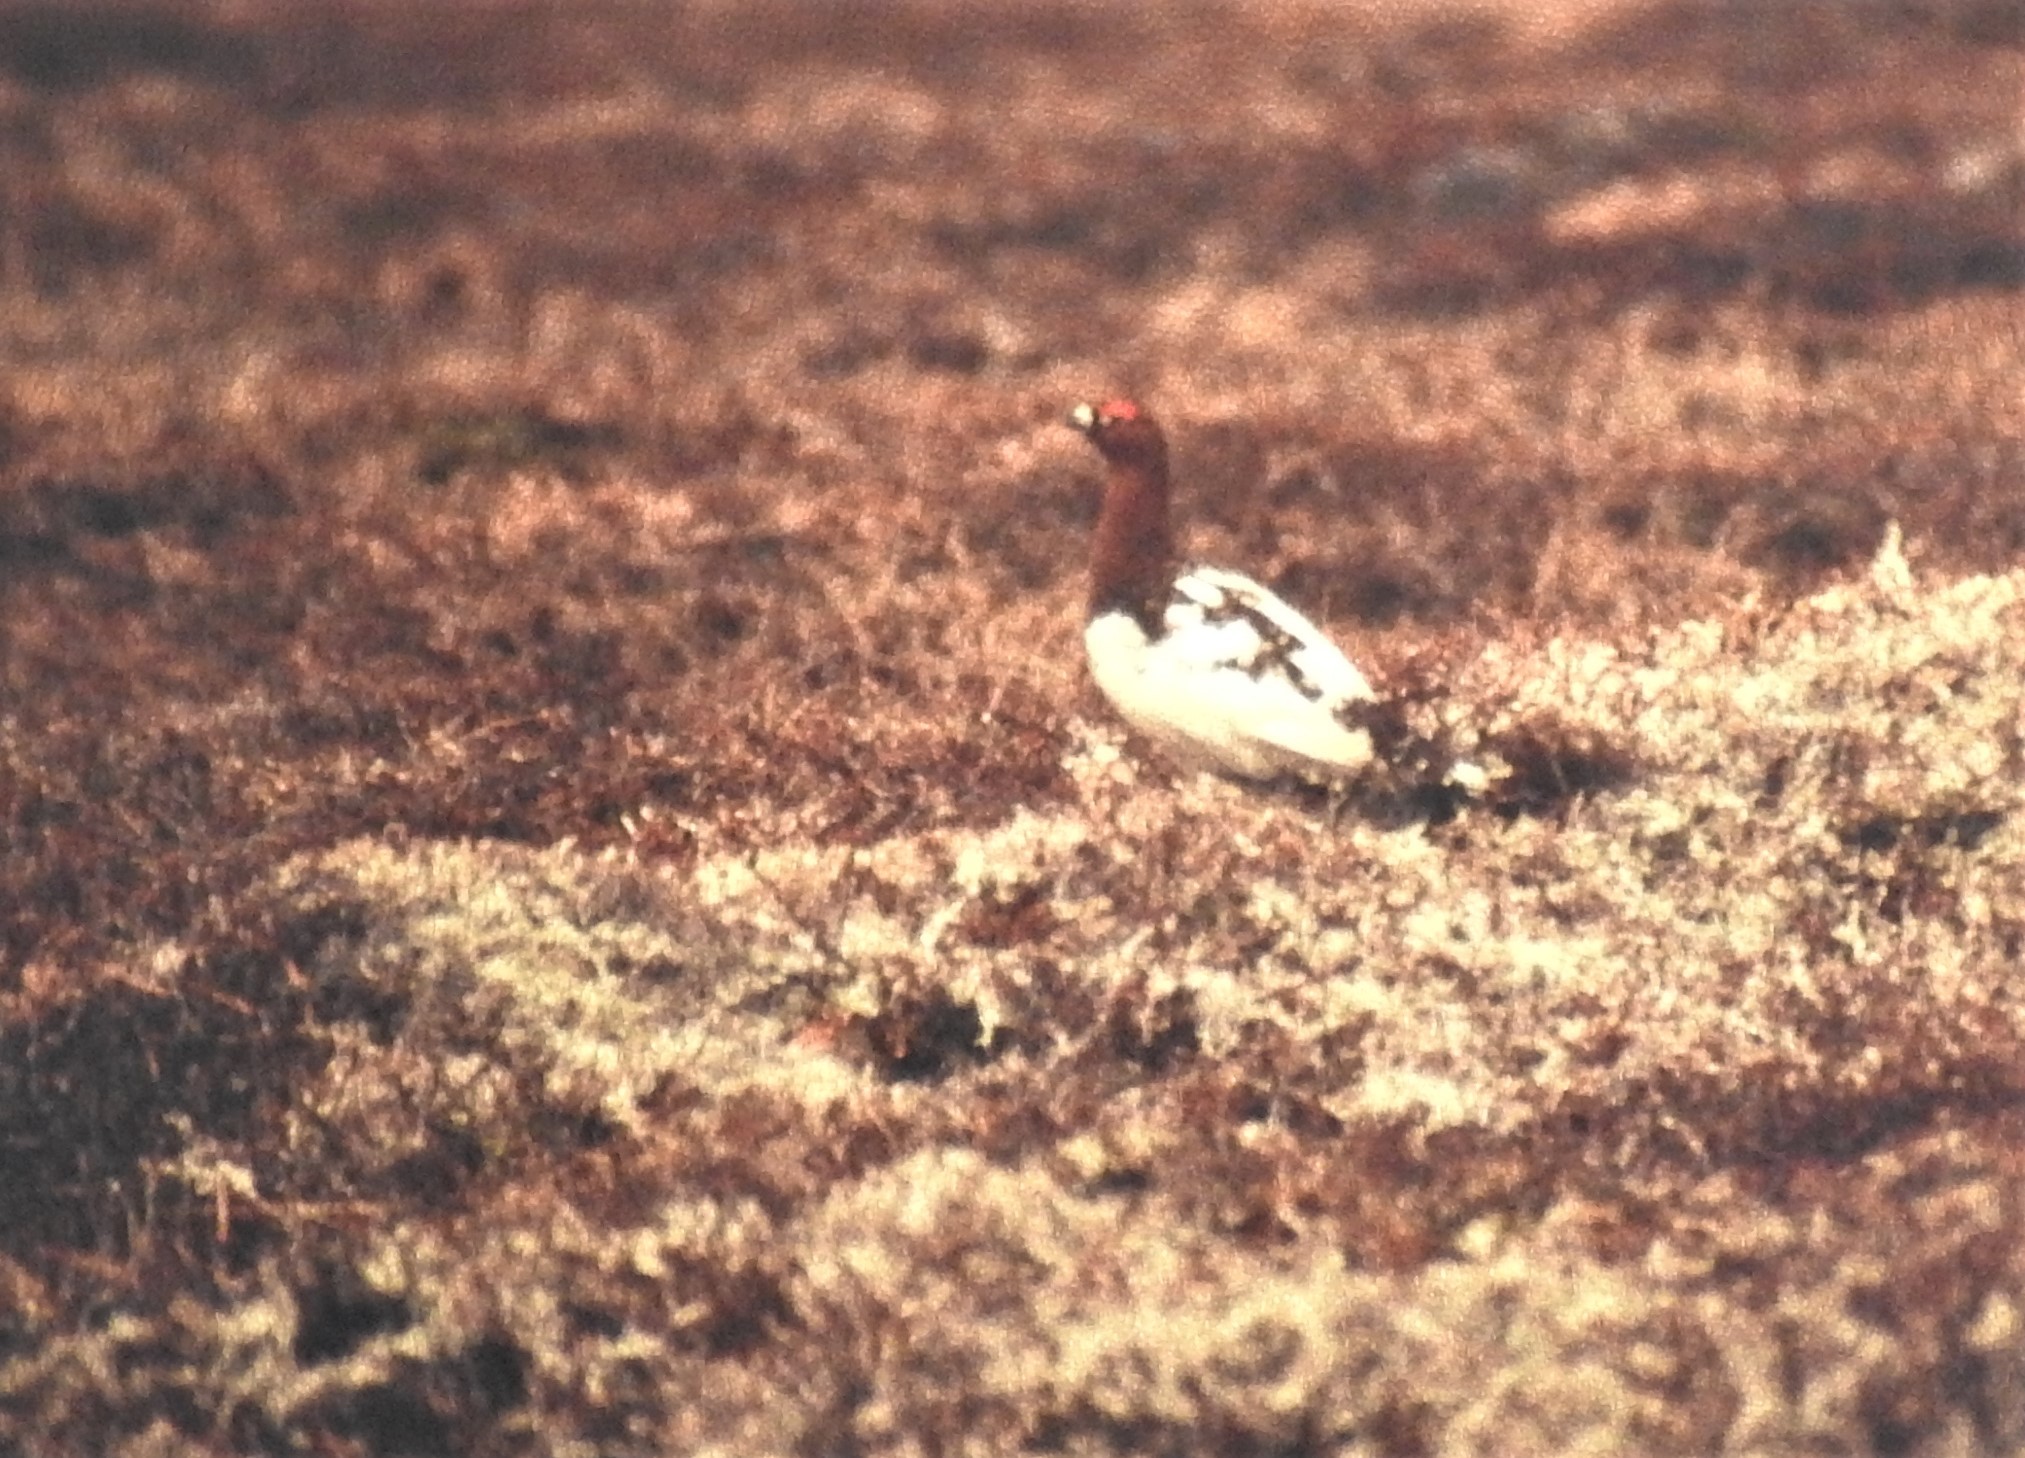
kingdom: Animalia
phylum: Chordata
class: Aves
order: Galliformes
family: Phasianidae
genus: Lagopus
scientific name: Lagopus lagopus
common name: Willow ptarmigan
